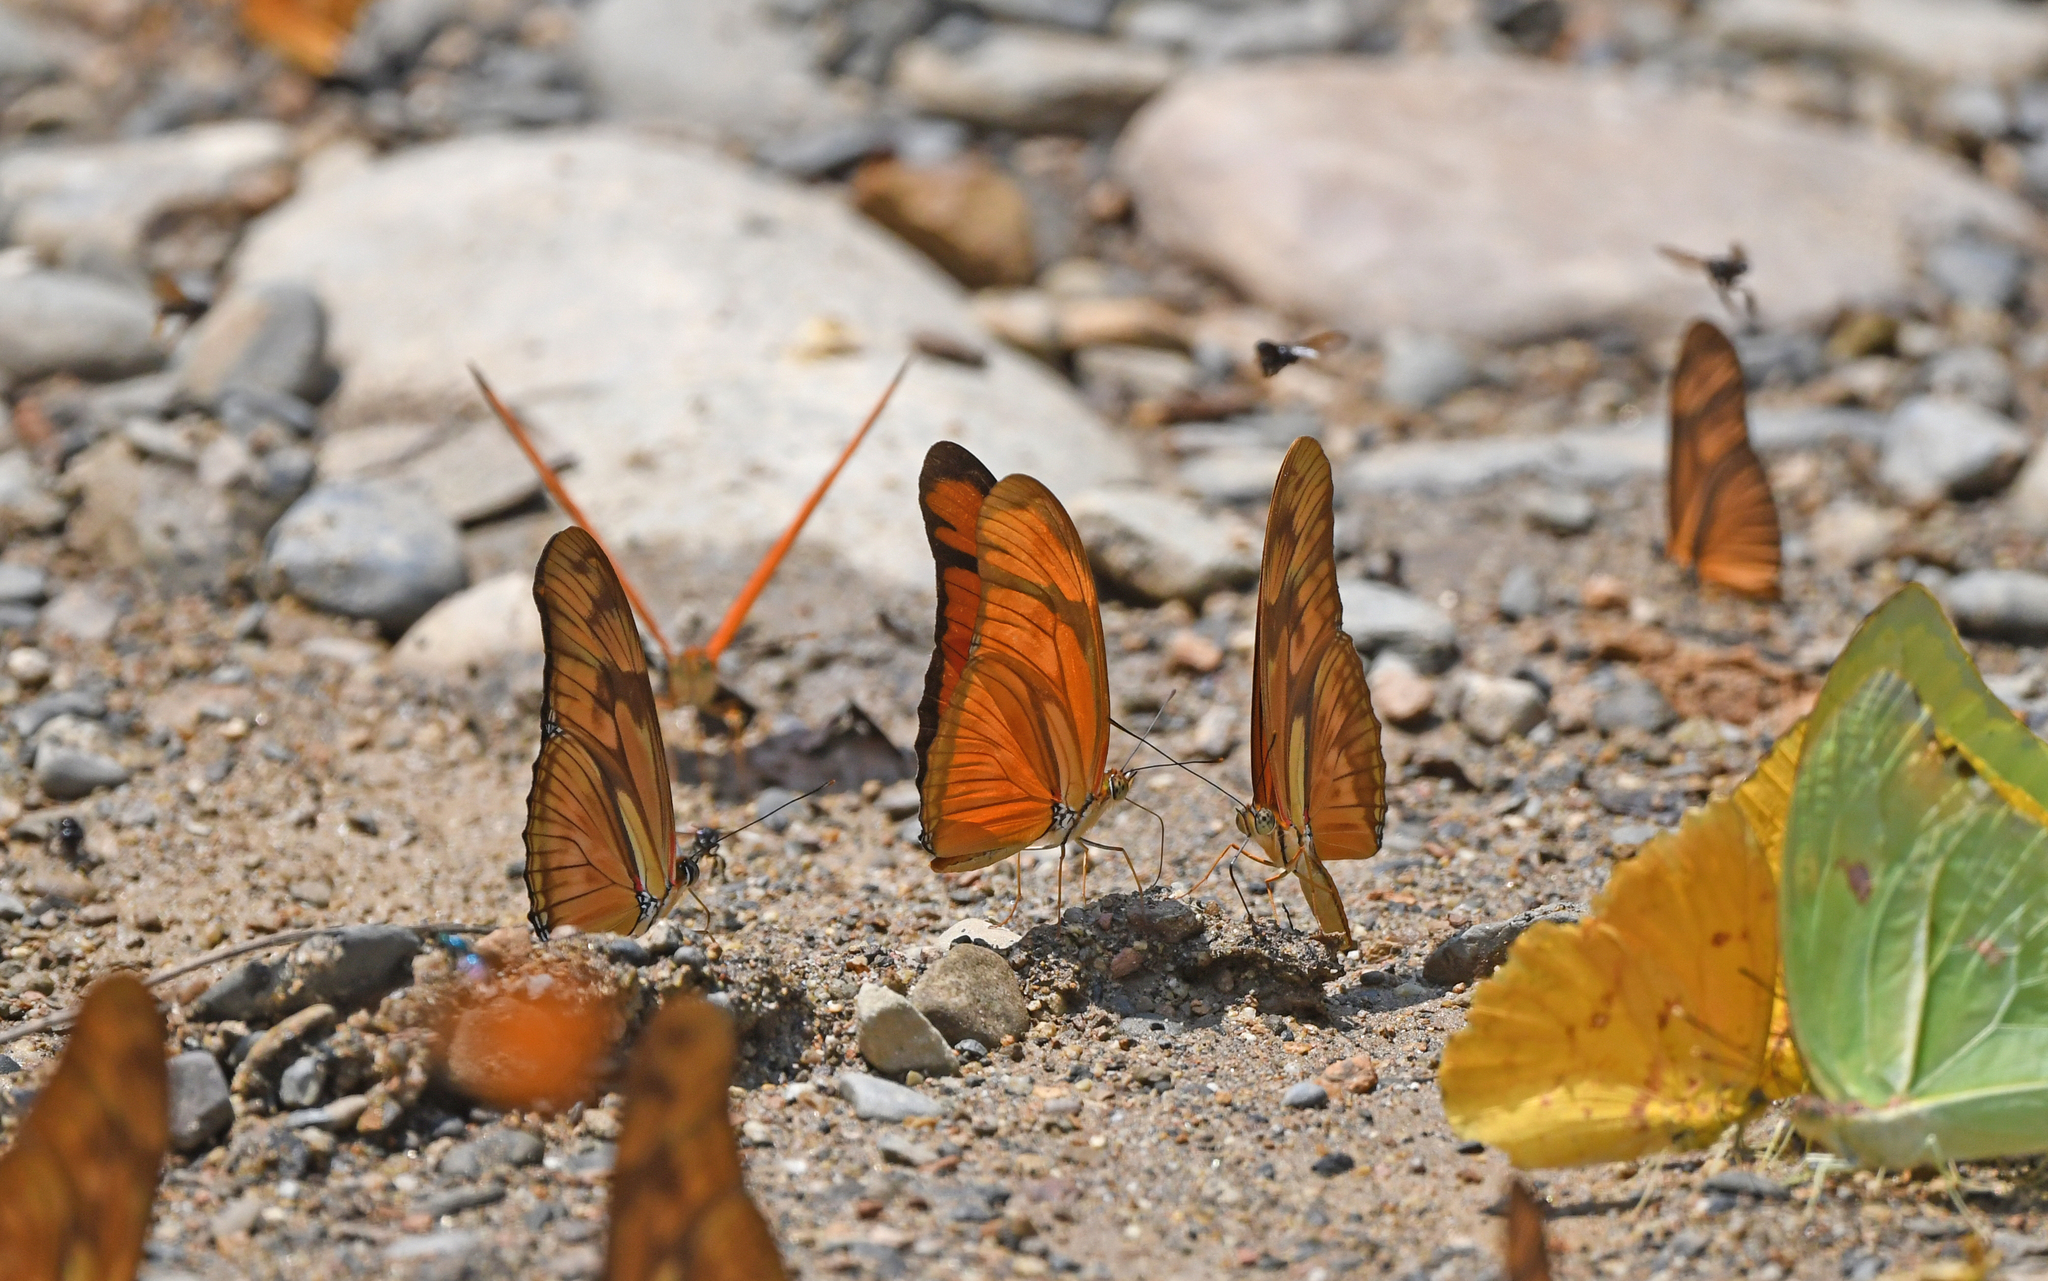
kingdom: Animalia
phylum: Arthropoda
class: Insecta
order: Lepidoptera
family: Nymphalidae
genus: Dryas
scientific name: Dryas iulia
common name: Flambeau
